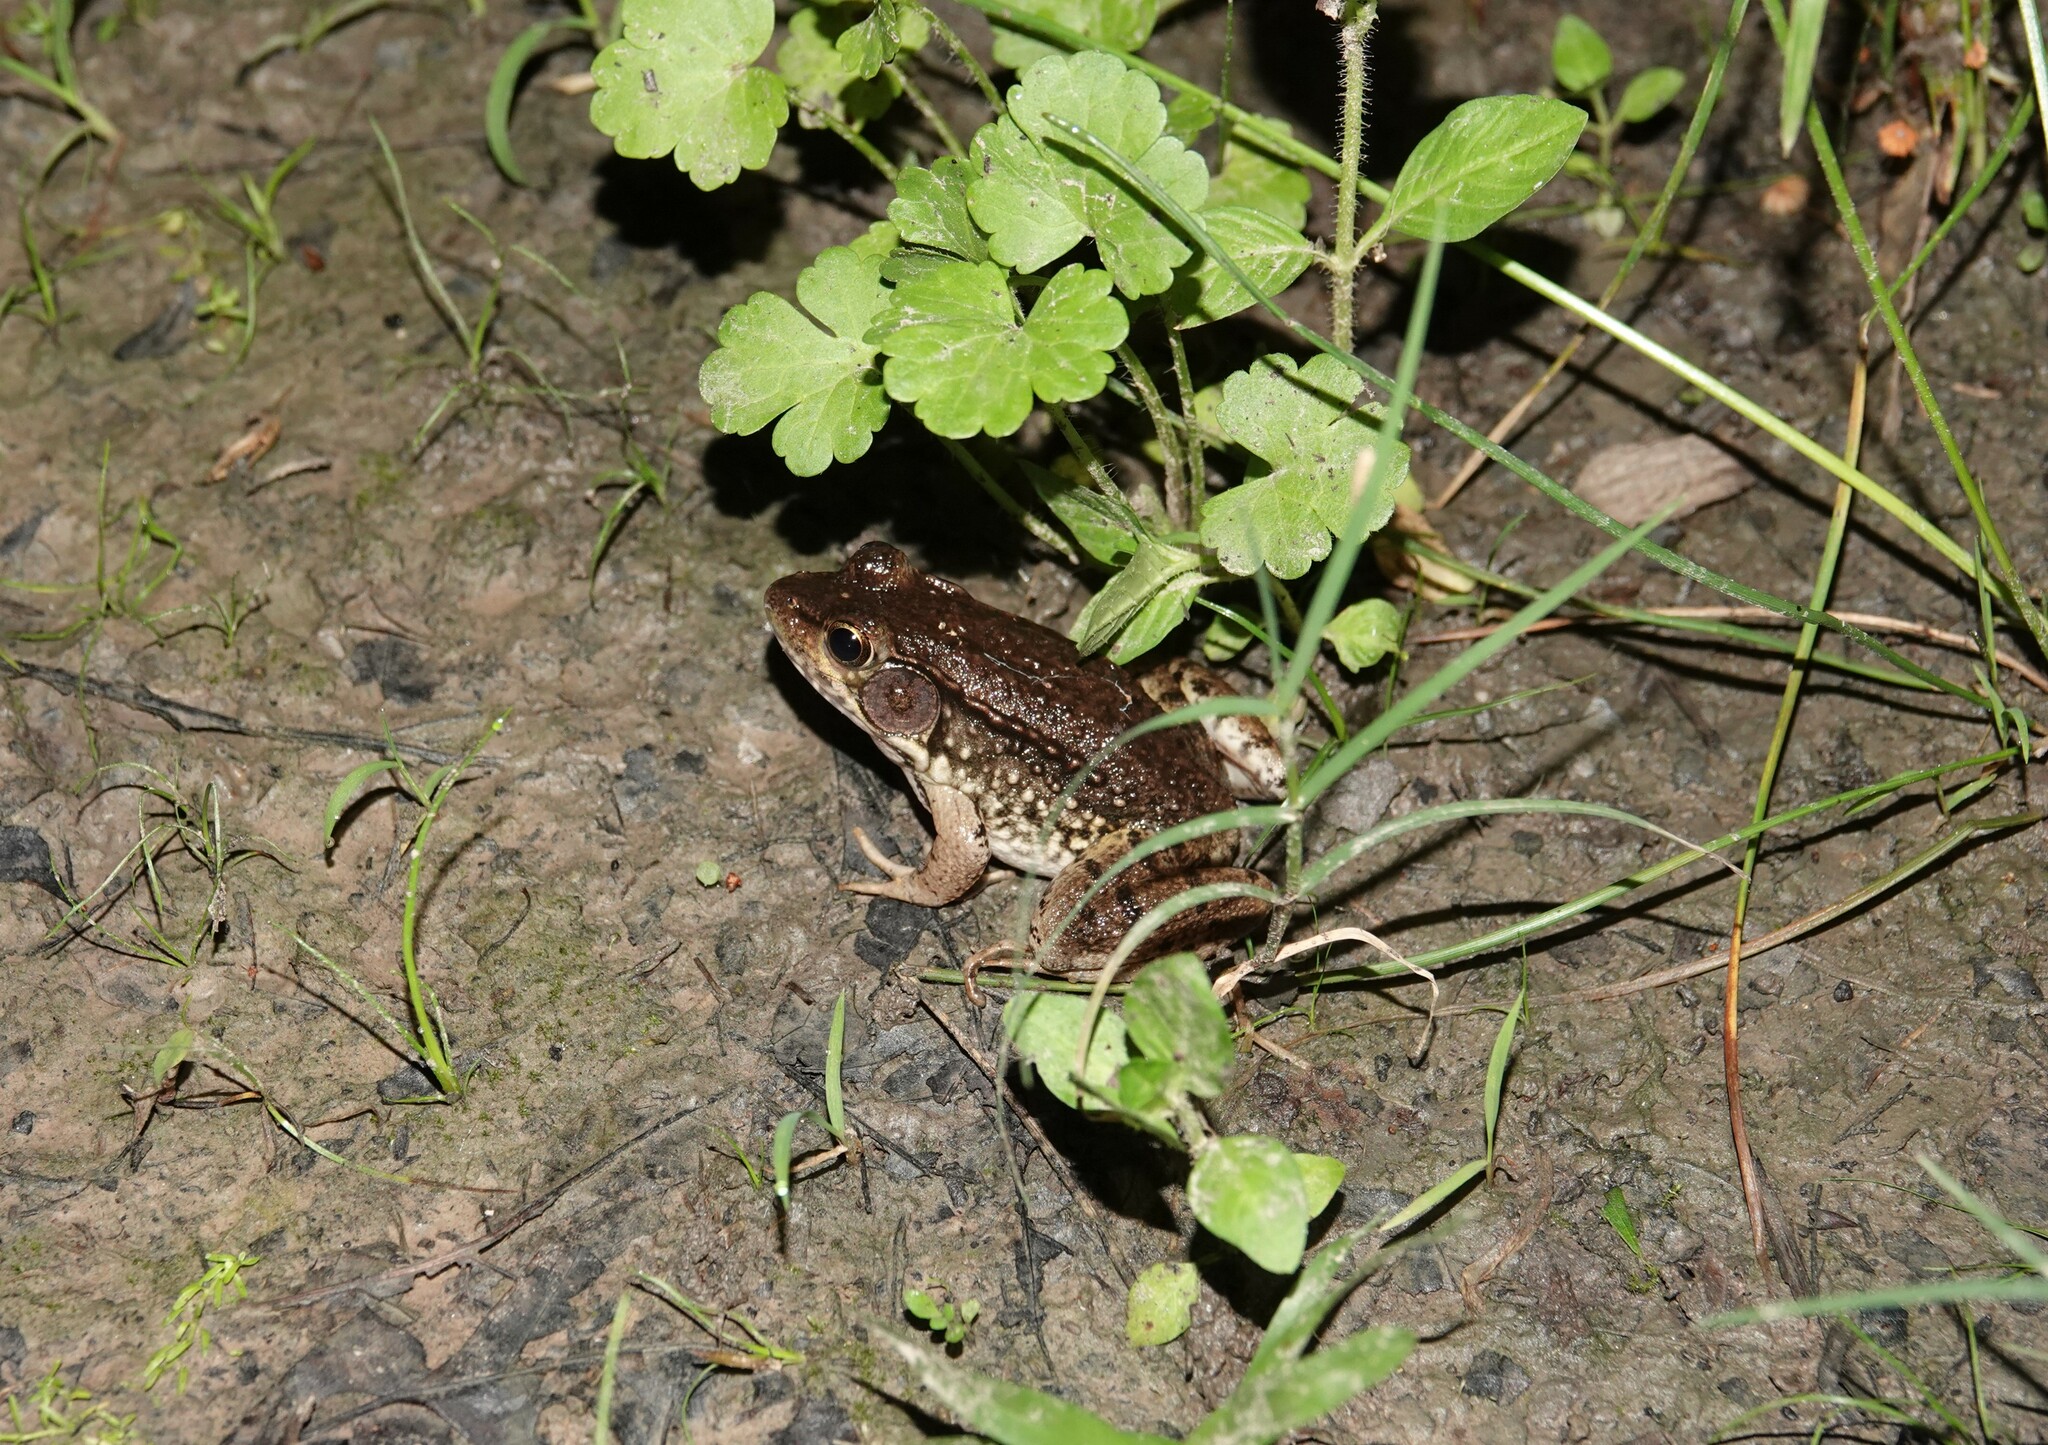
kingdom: Animalia
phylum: Chordata
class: Amphibia
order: Anura
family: Ranidae
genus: Lithobates
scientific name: Lithobates clamitans
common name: Green frog
